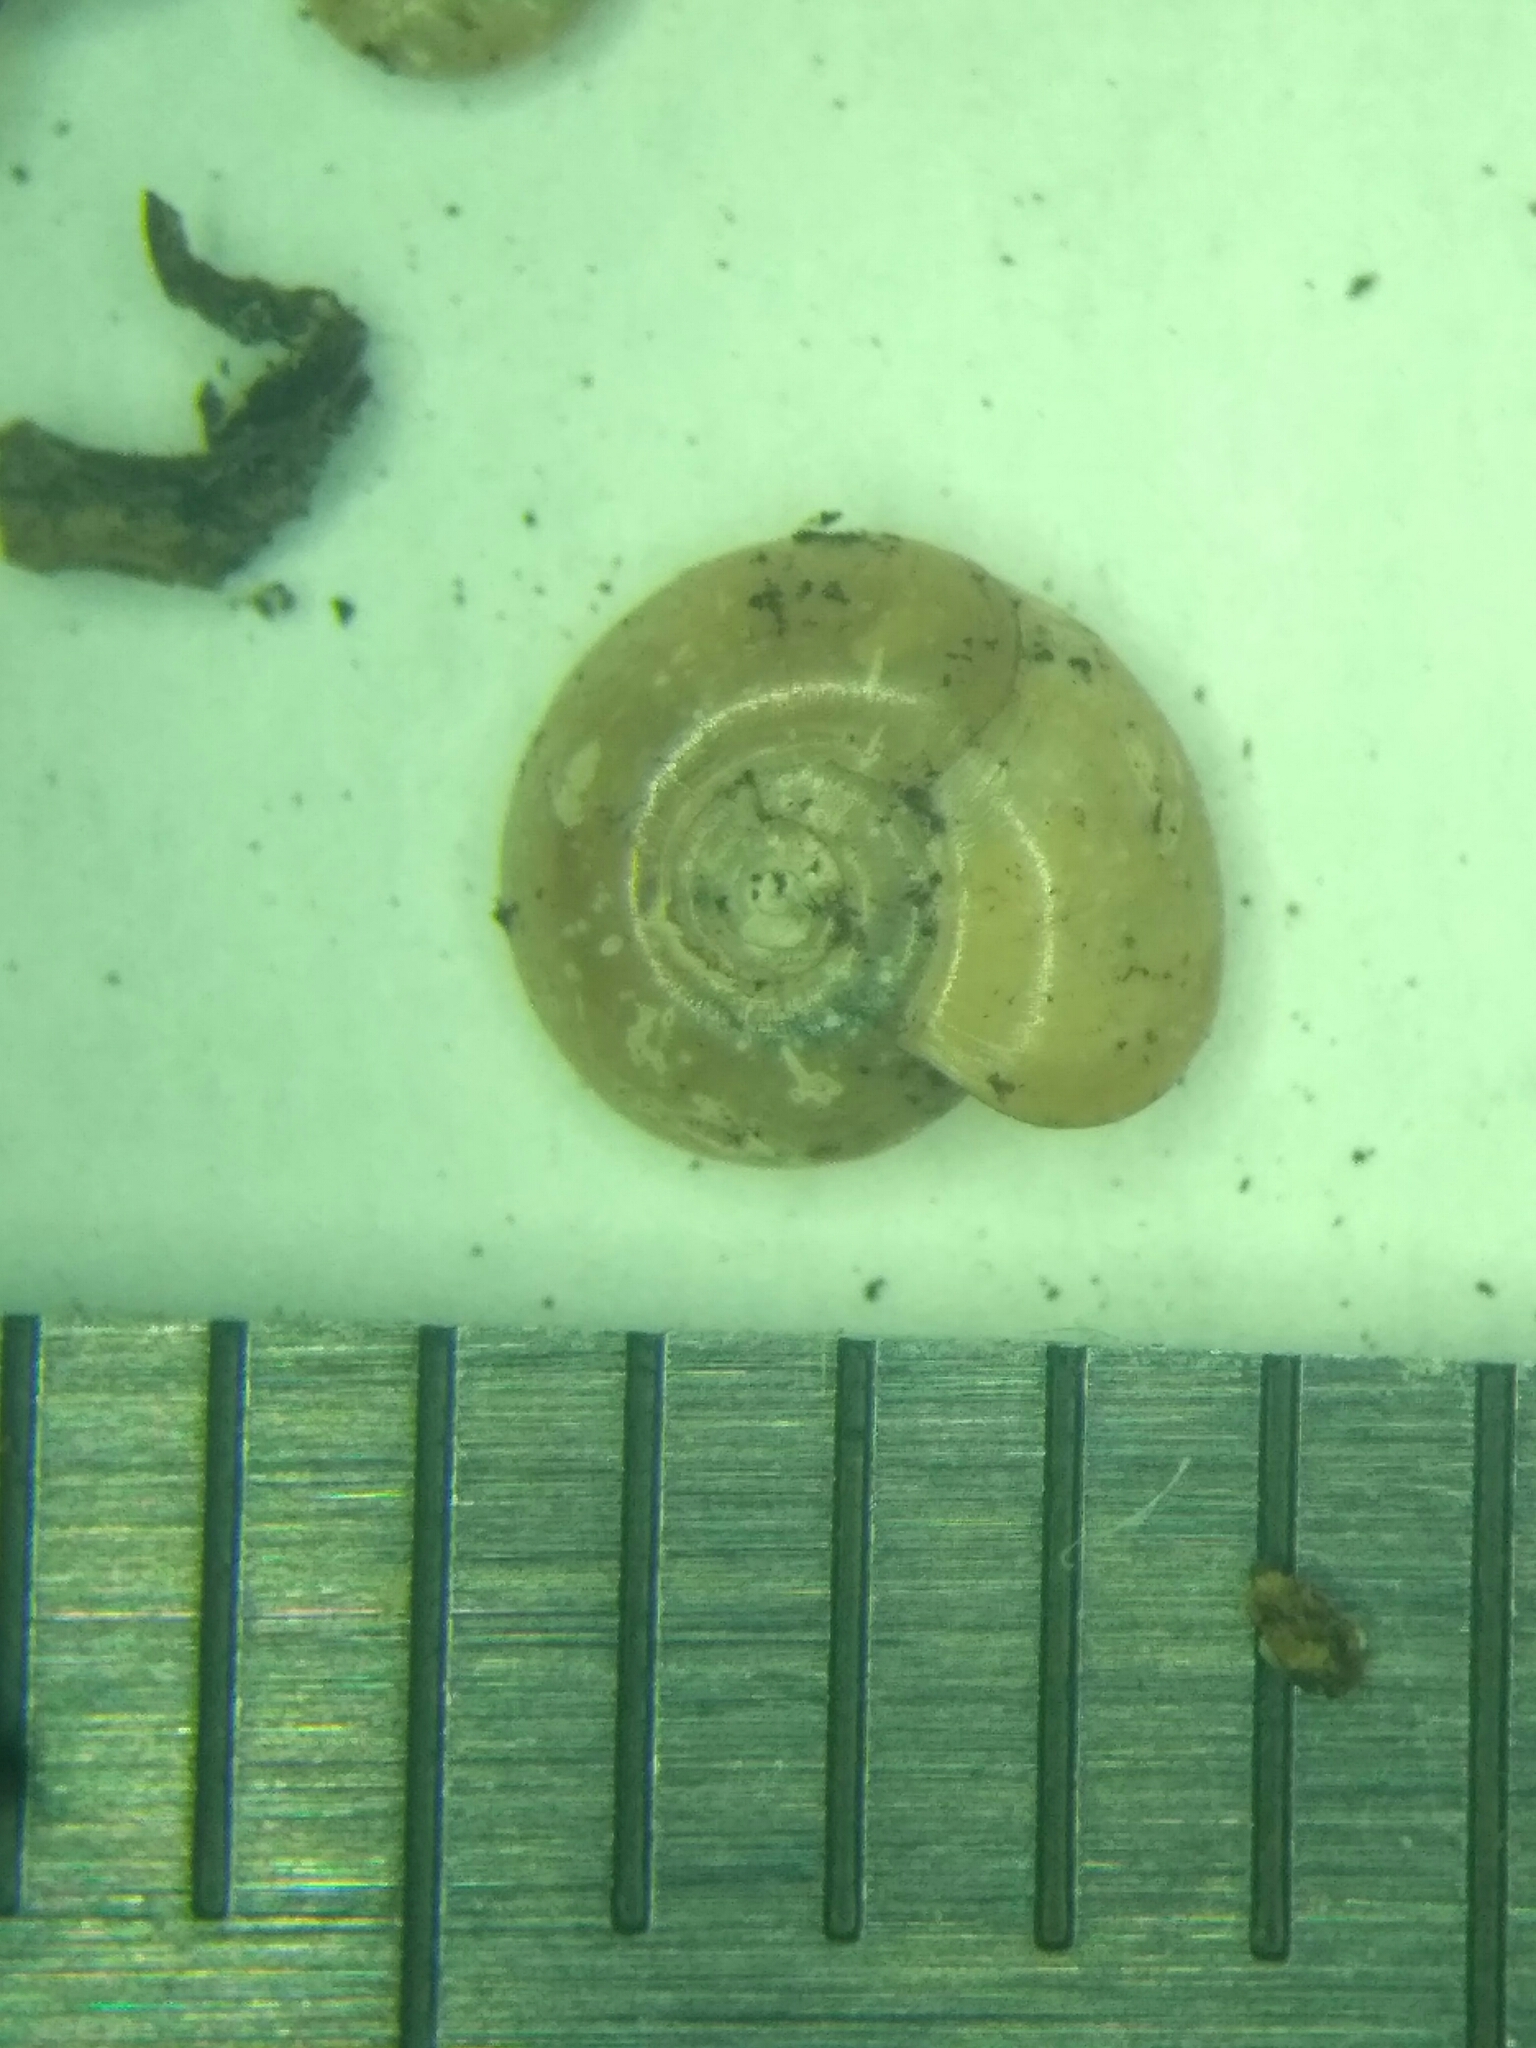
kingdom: Animalia
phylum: Mollusca
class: Gastropoda
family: Planorbidae
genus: Segmentina
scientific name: Segmentina nitida
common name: The shining ram's-horn
